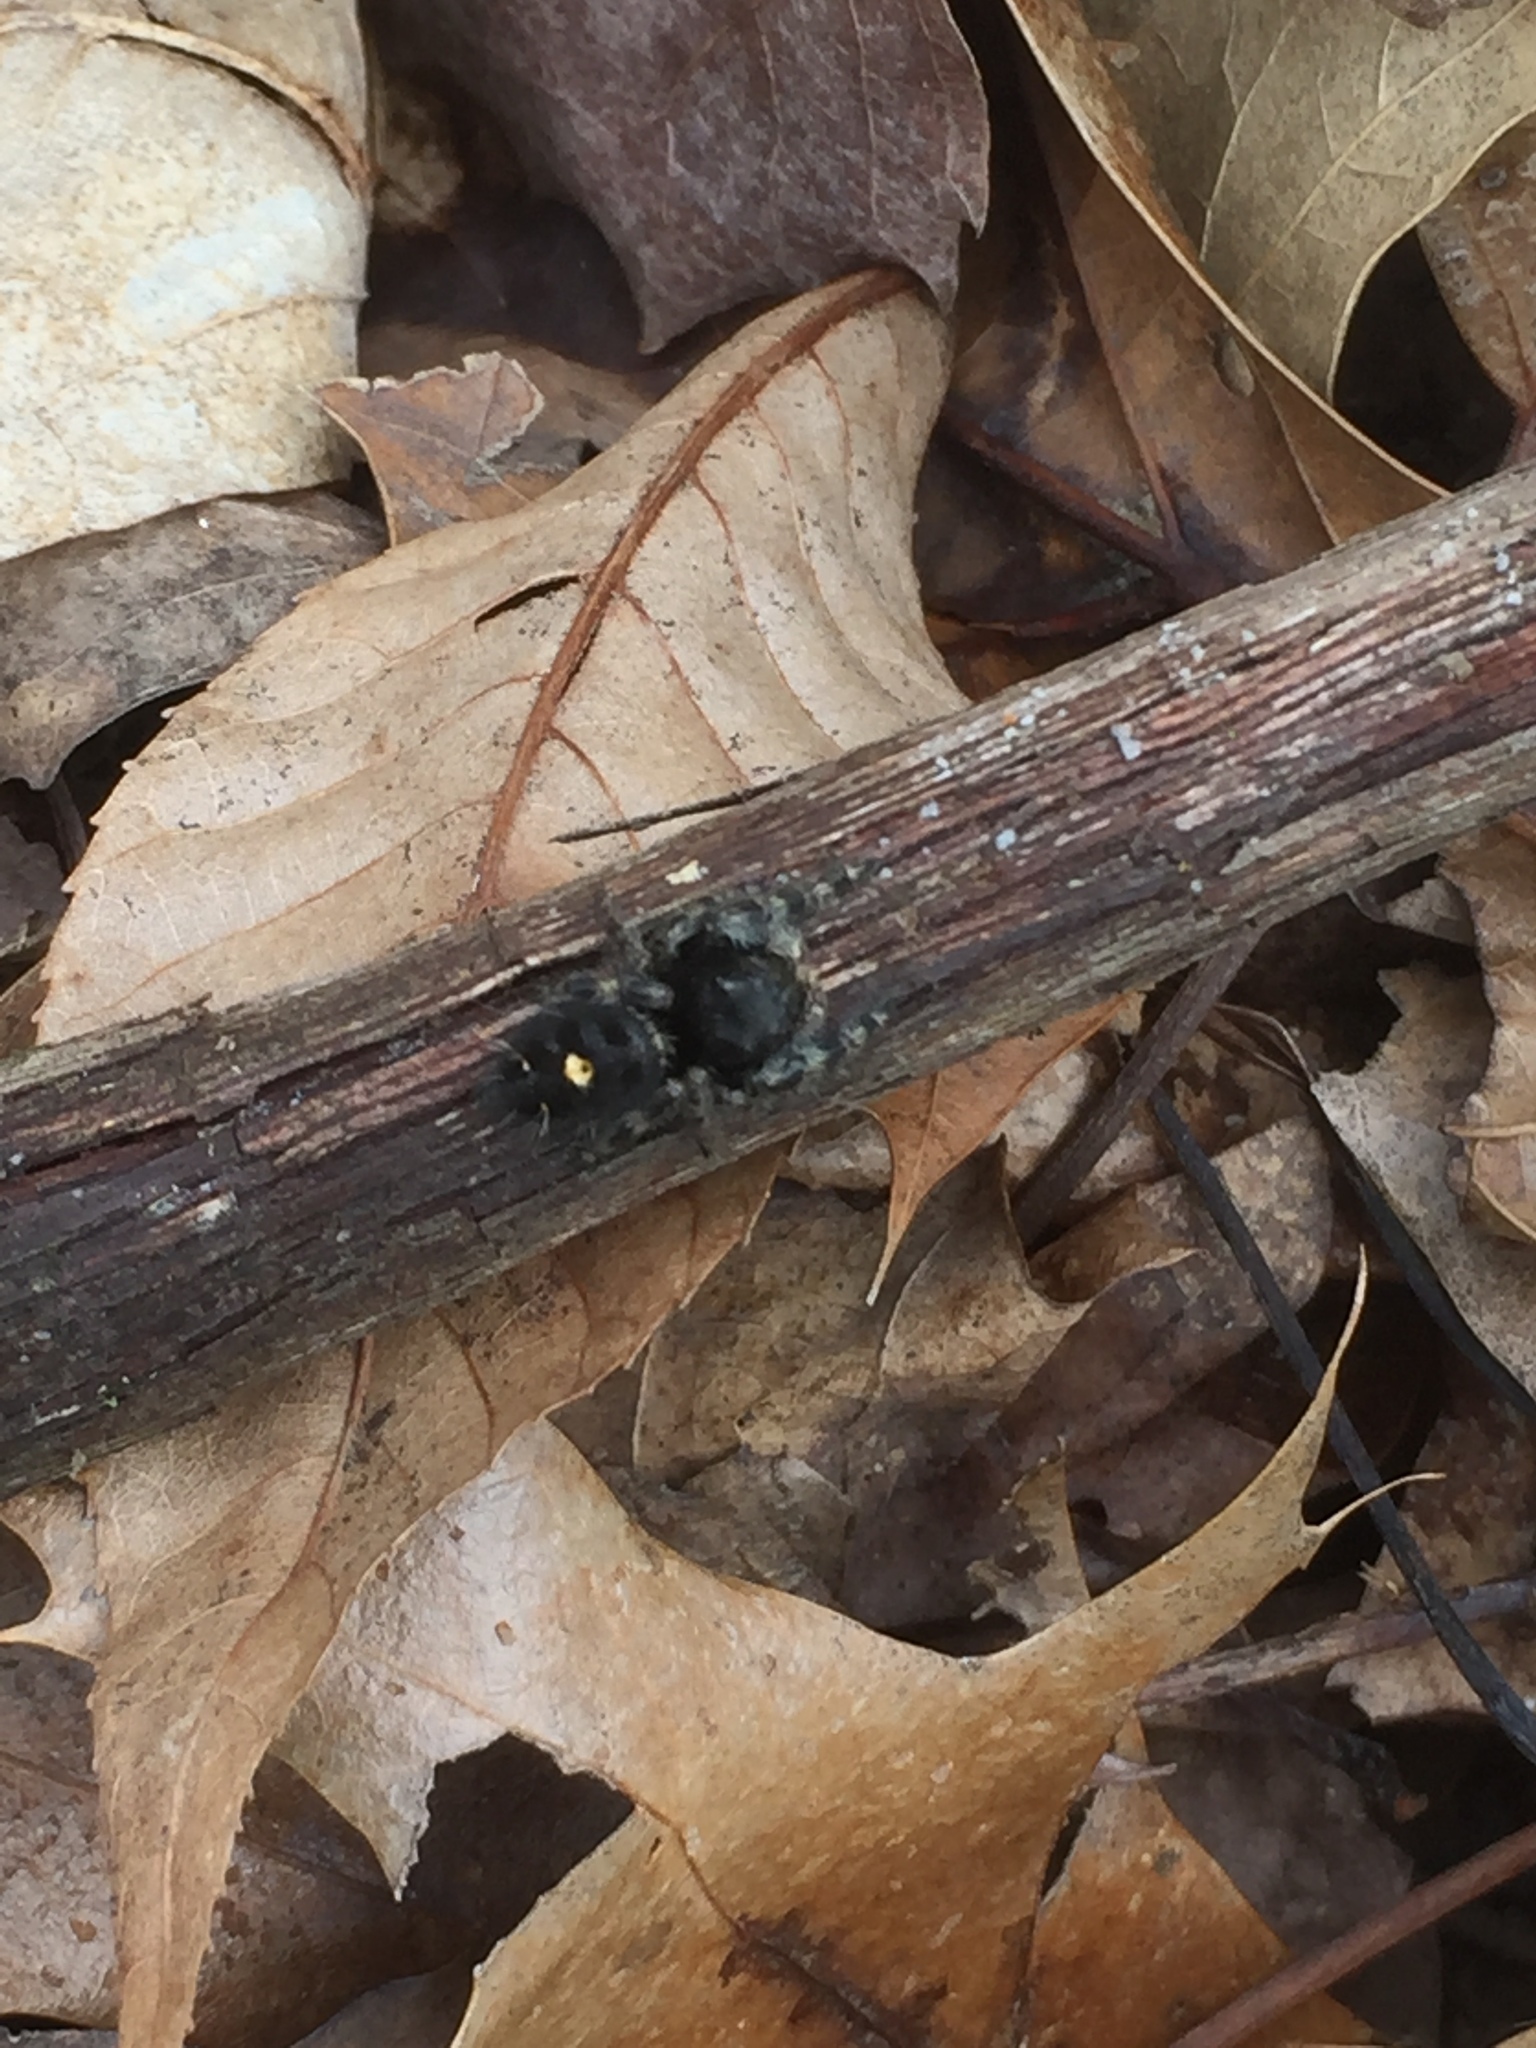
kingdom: Animalia
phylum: Arthropoda
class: Arachnida
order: Araneae
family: Salticidae
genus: Phidippus
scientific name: Phidippus audax
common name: Bold jumper
